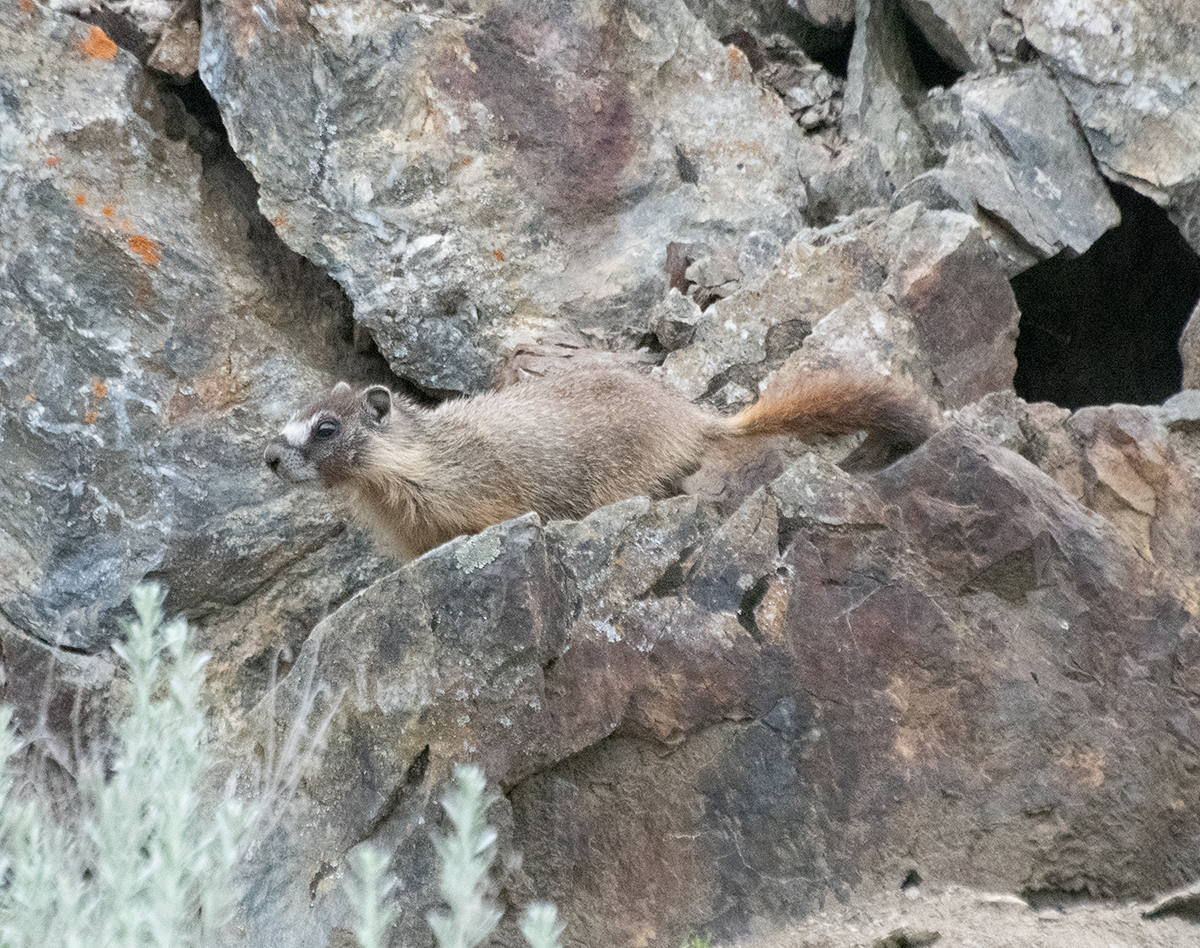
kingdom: Animalia
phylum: Chordata
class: Mammalia
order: Rodentia
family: Sciuridae
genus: Marmota
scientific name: Marmota flaviventris
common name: Yellow-bellied marmot
